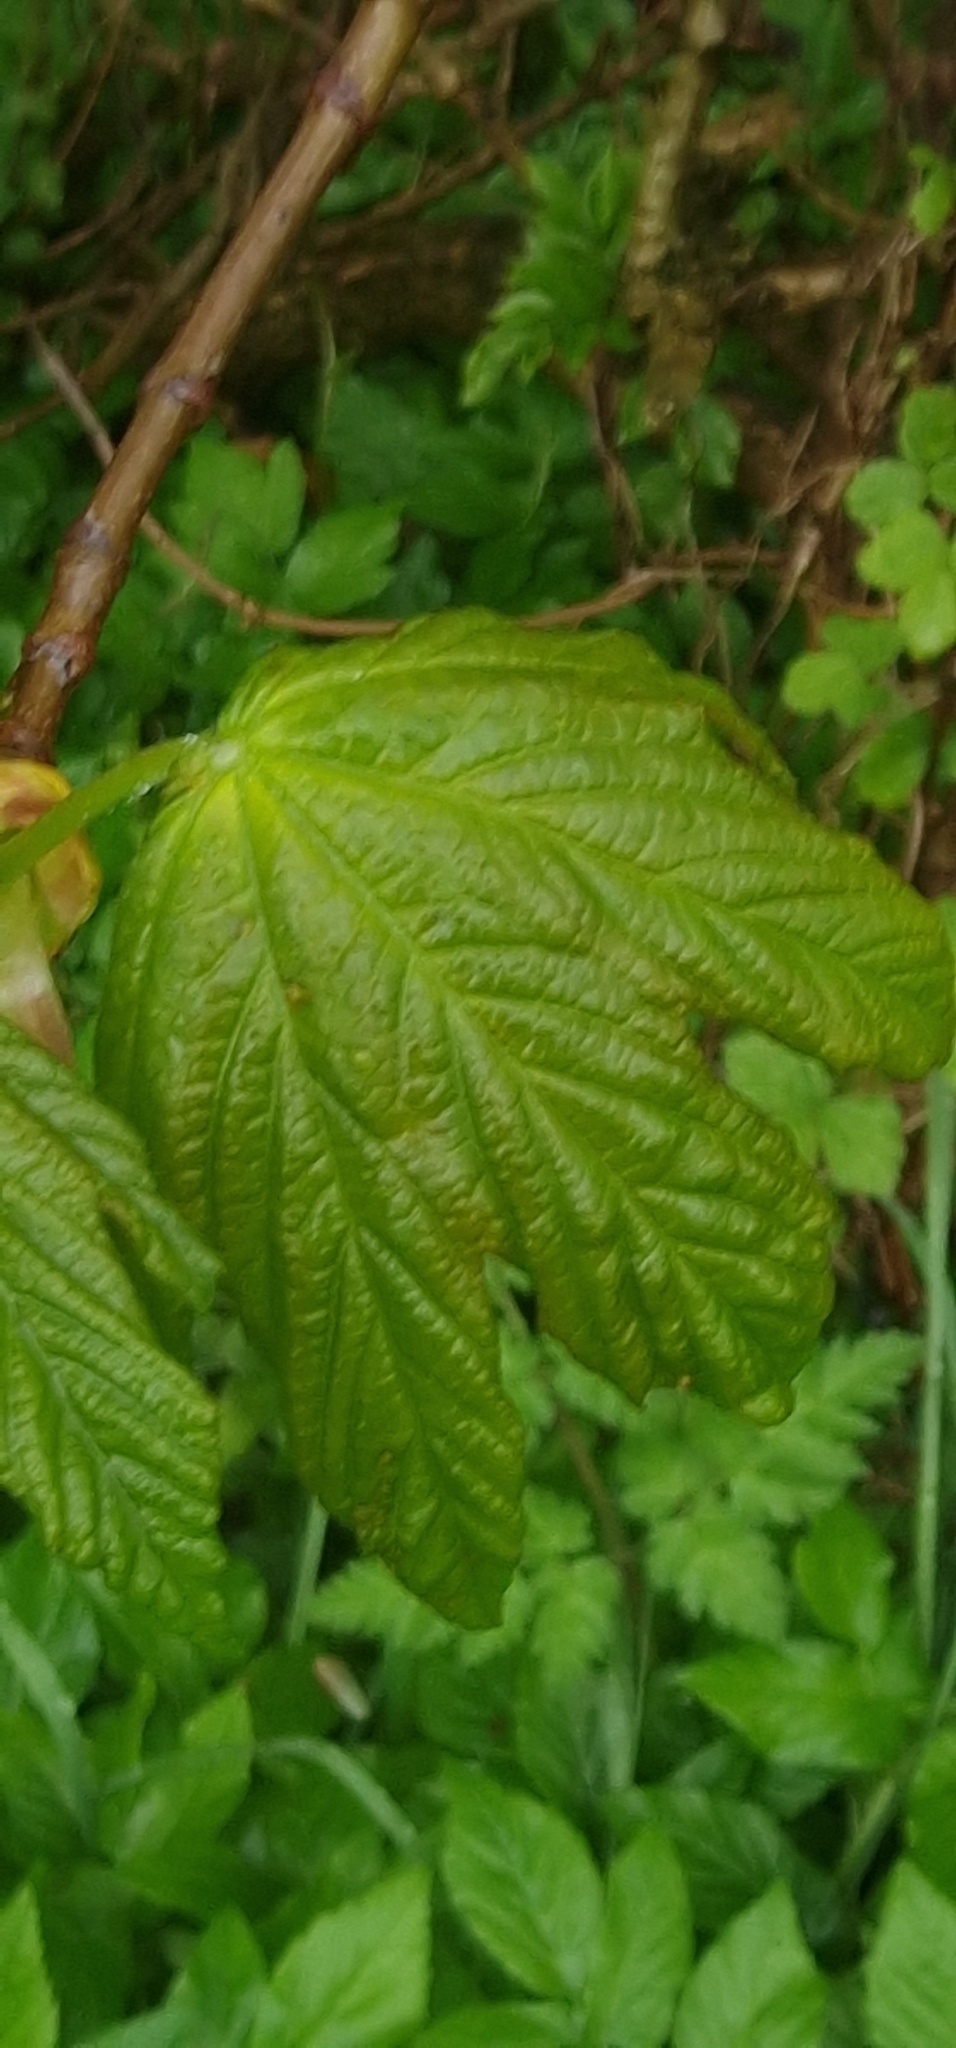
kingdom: Plantae
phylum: Tracheophyta
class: Magnoliopsida
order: Sapindales
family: Sapindaceae
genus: Acer
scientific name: Acer pseudoplatanus
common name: Sycamore
